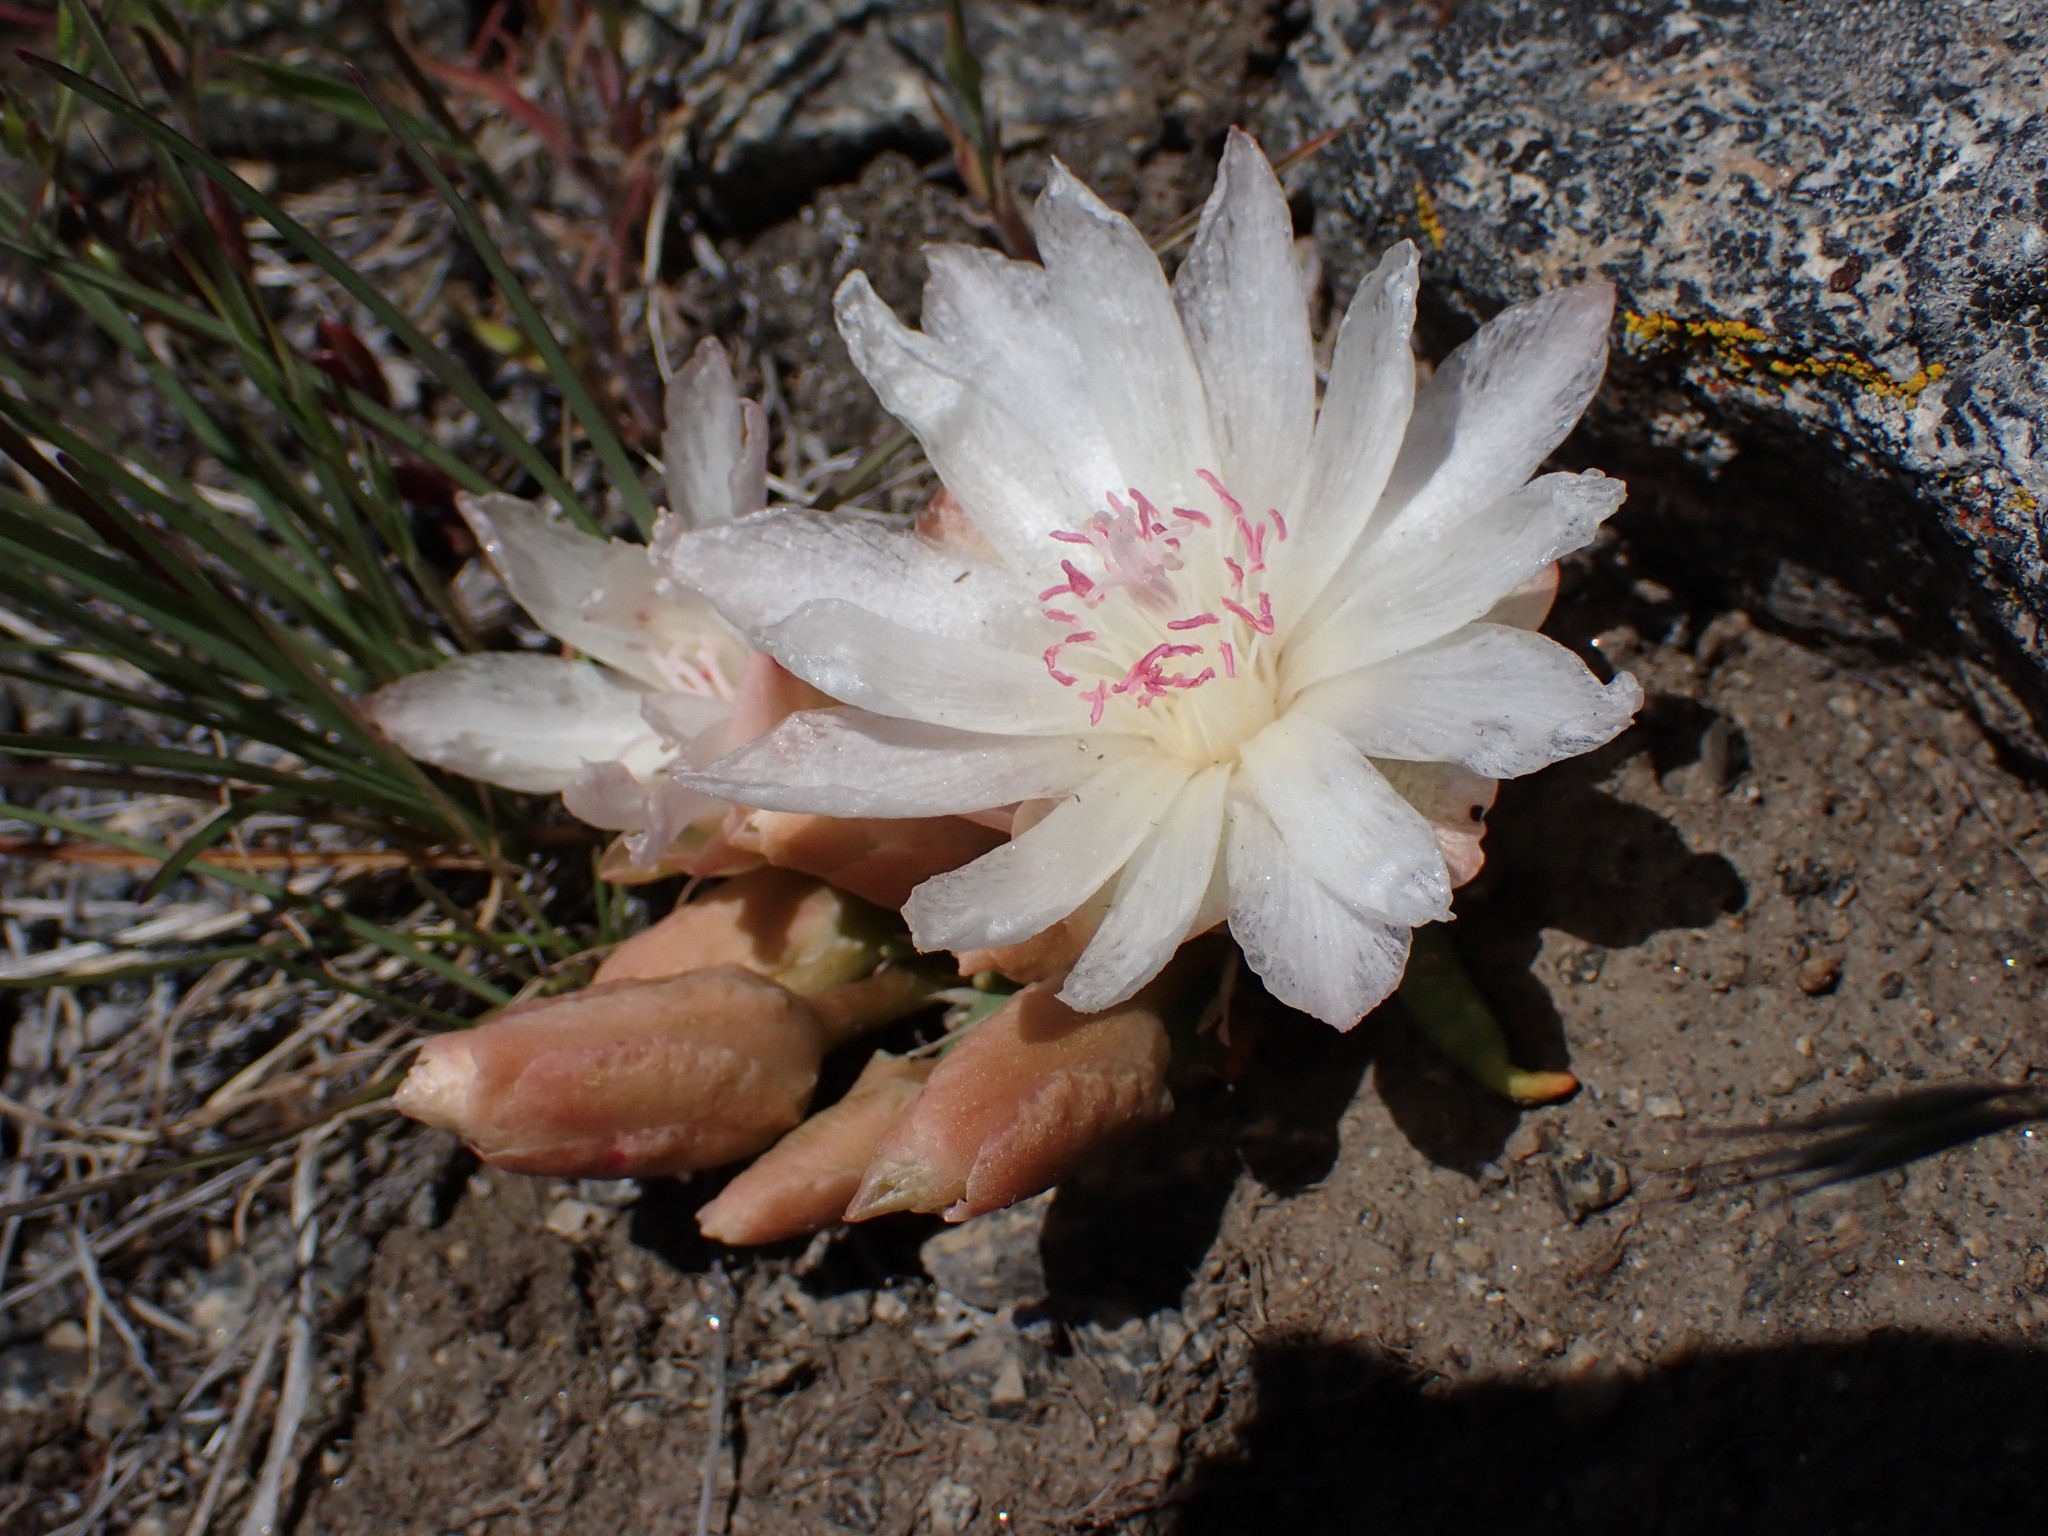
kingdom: Plantae
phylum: Tracheophyta
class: Magnoliopsida
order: Caryophyllales
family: Montiaceae
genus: Lewisia
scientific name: Lewisia rediviva
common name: Bitter-root
